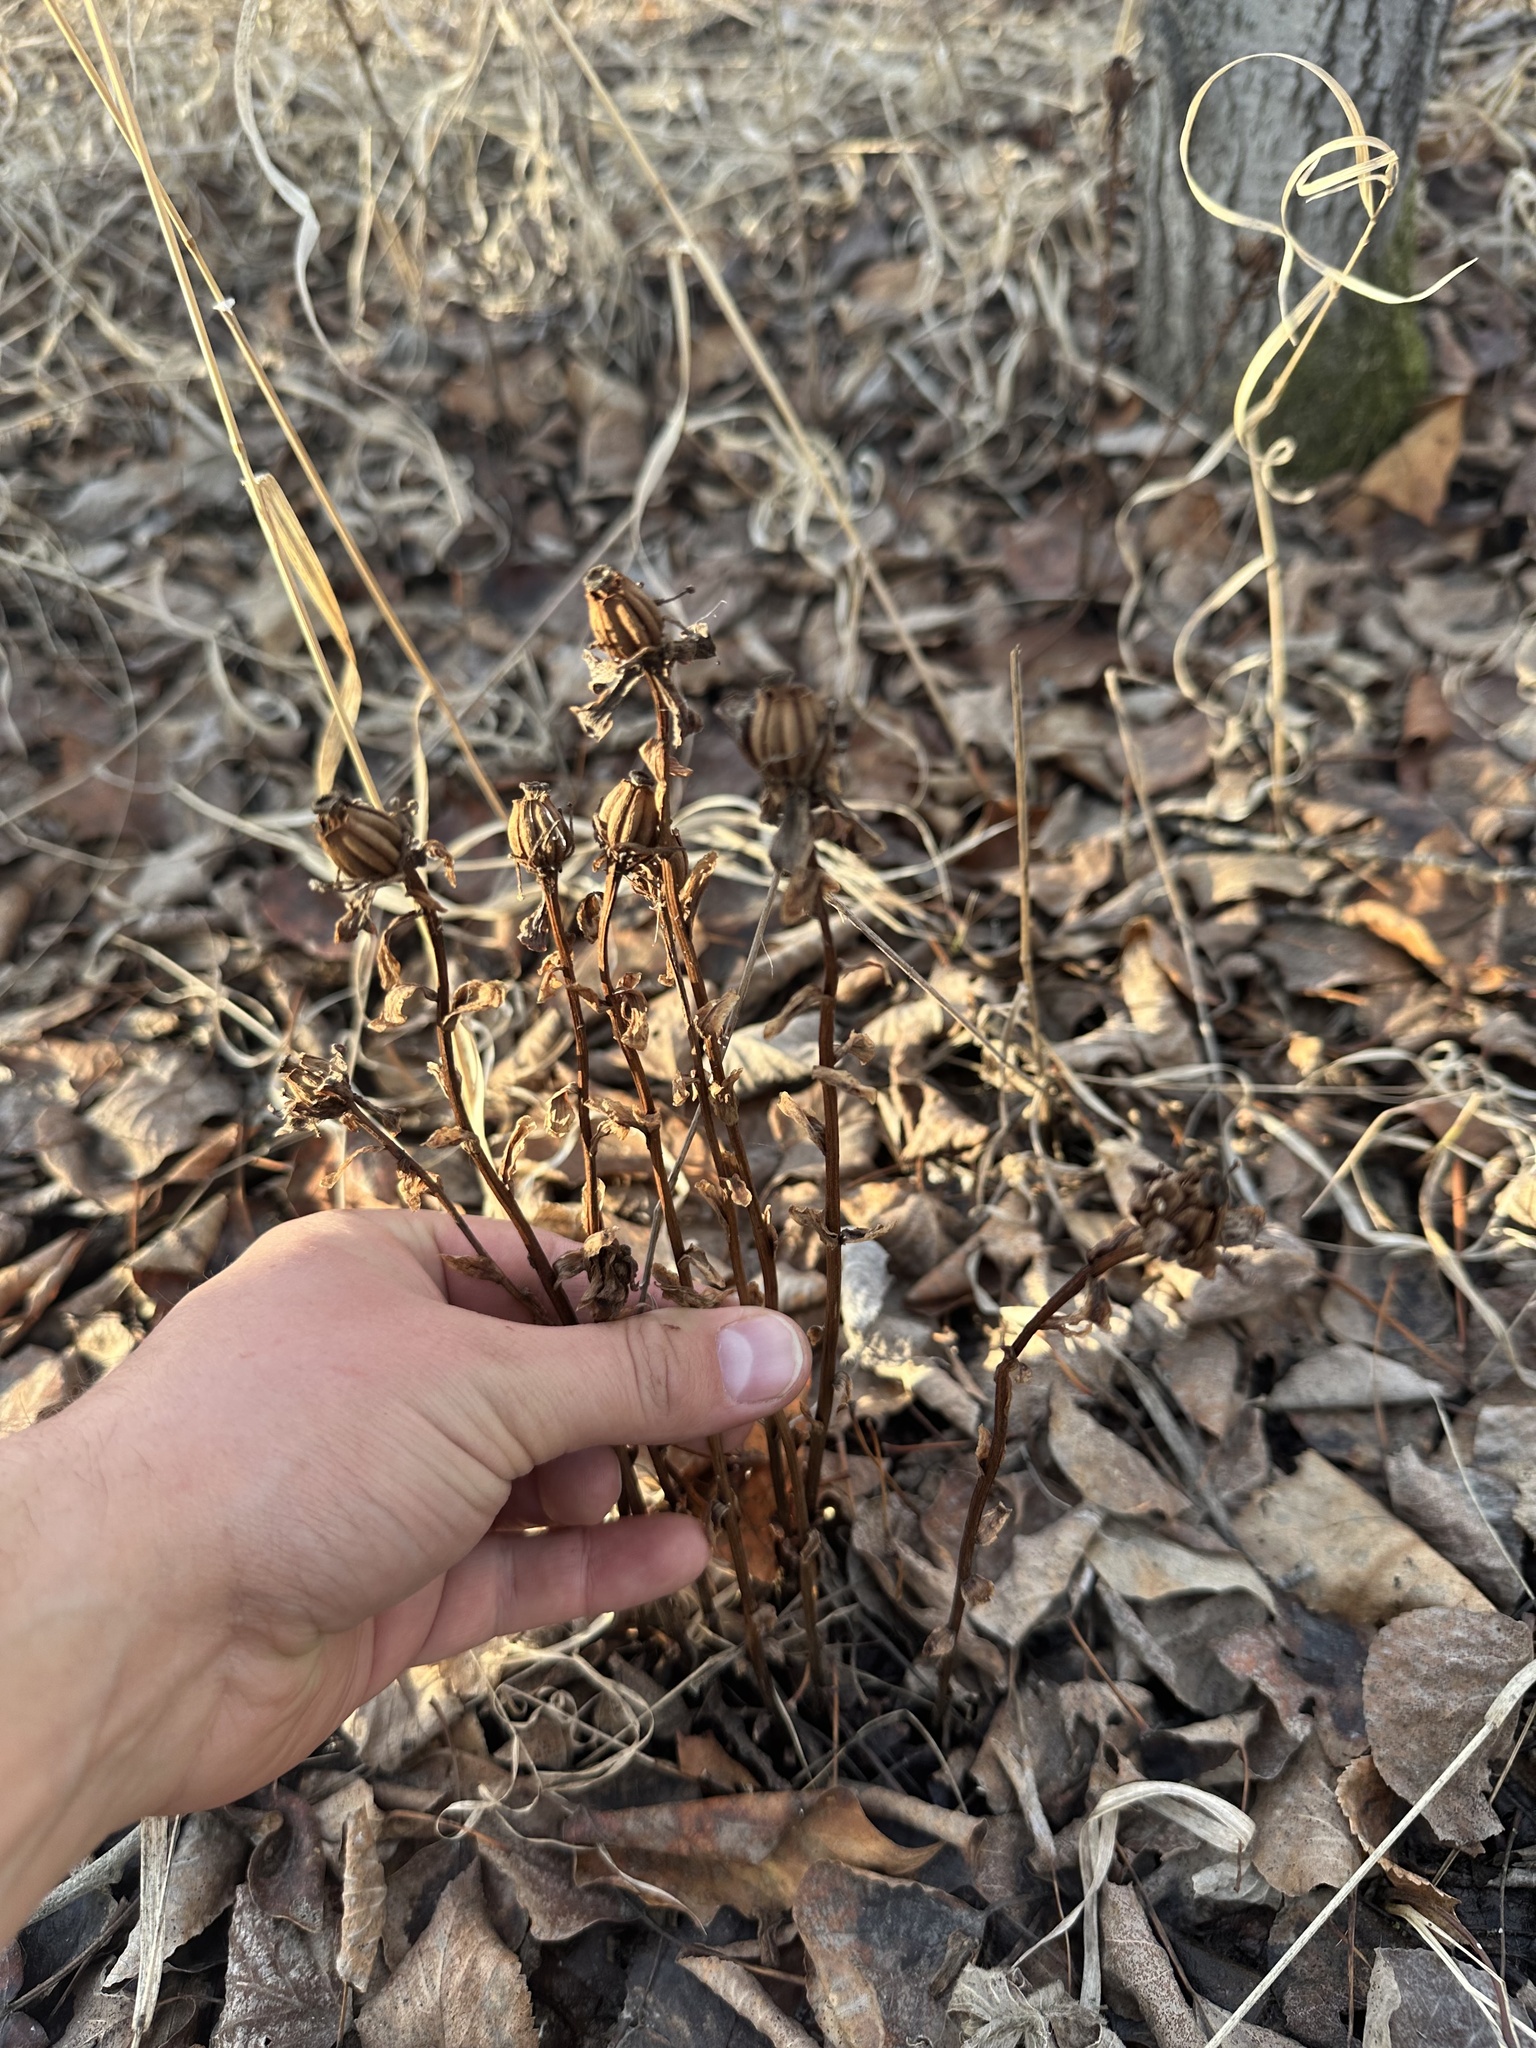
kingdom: Plantae
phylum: Tracheophyta
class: Magnoliopsida
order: Ericales
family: Ericaceae
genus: Monotropa
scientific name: Monotropa uniflora
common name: Convulsion root
